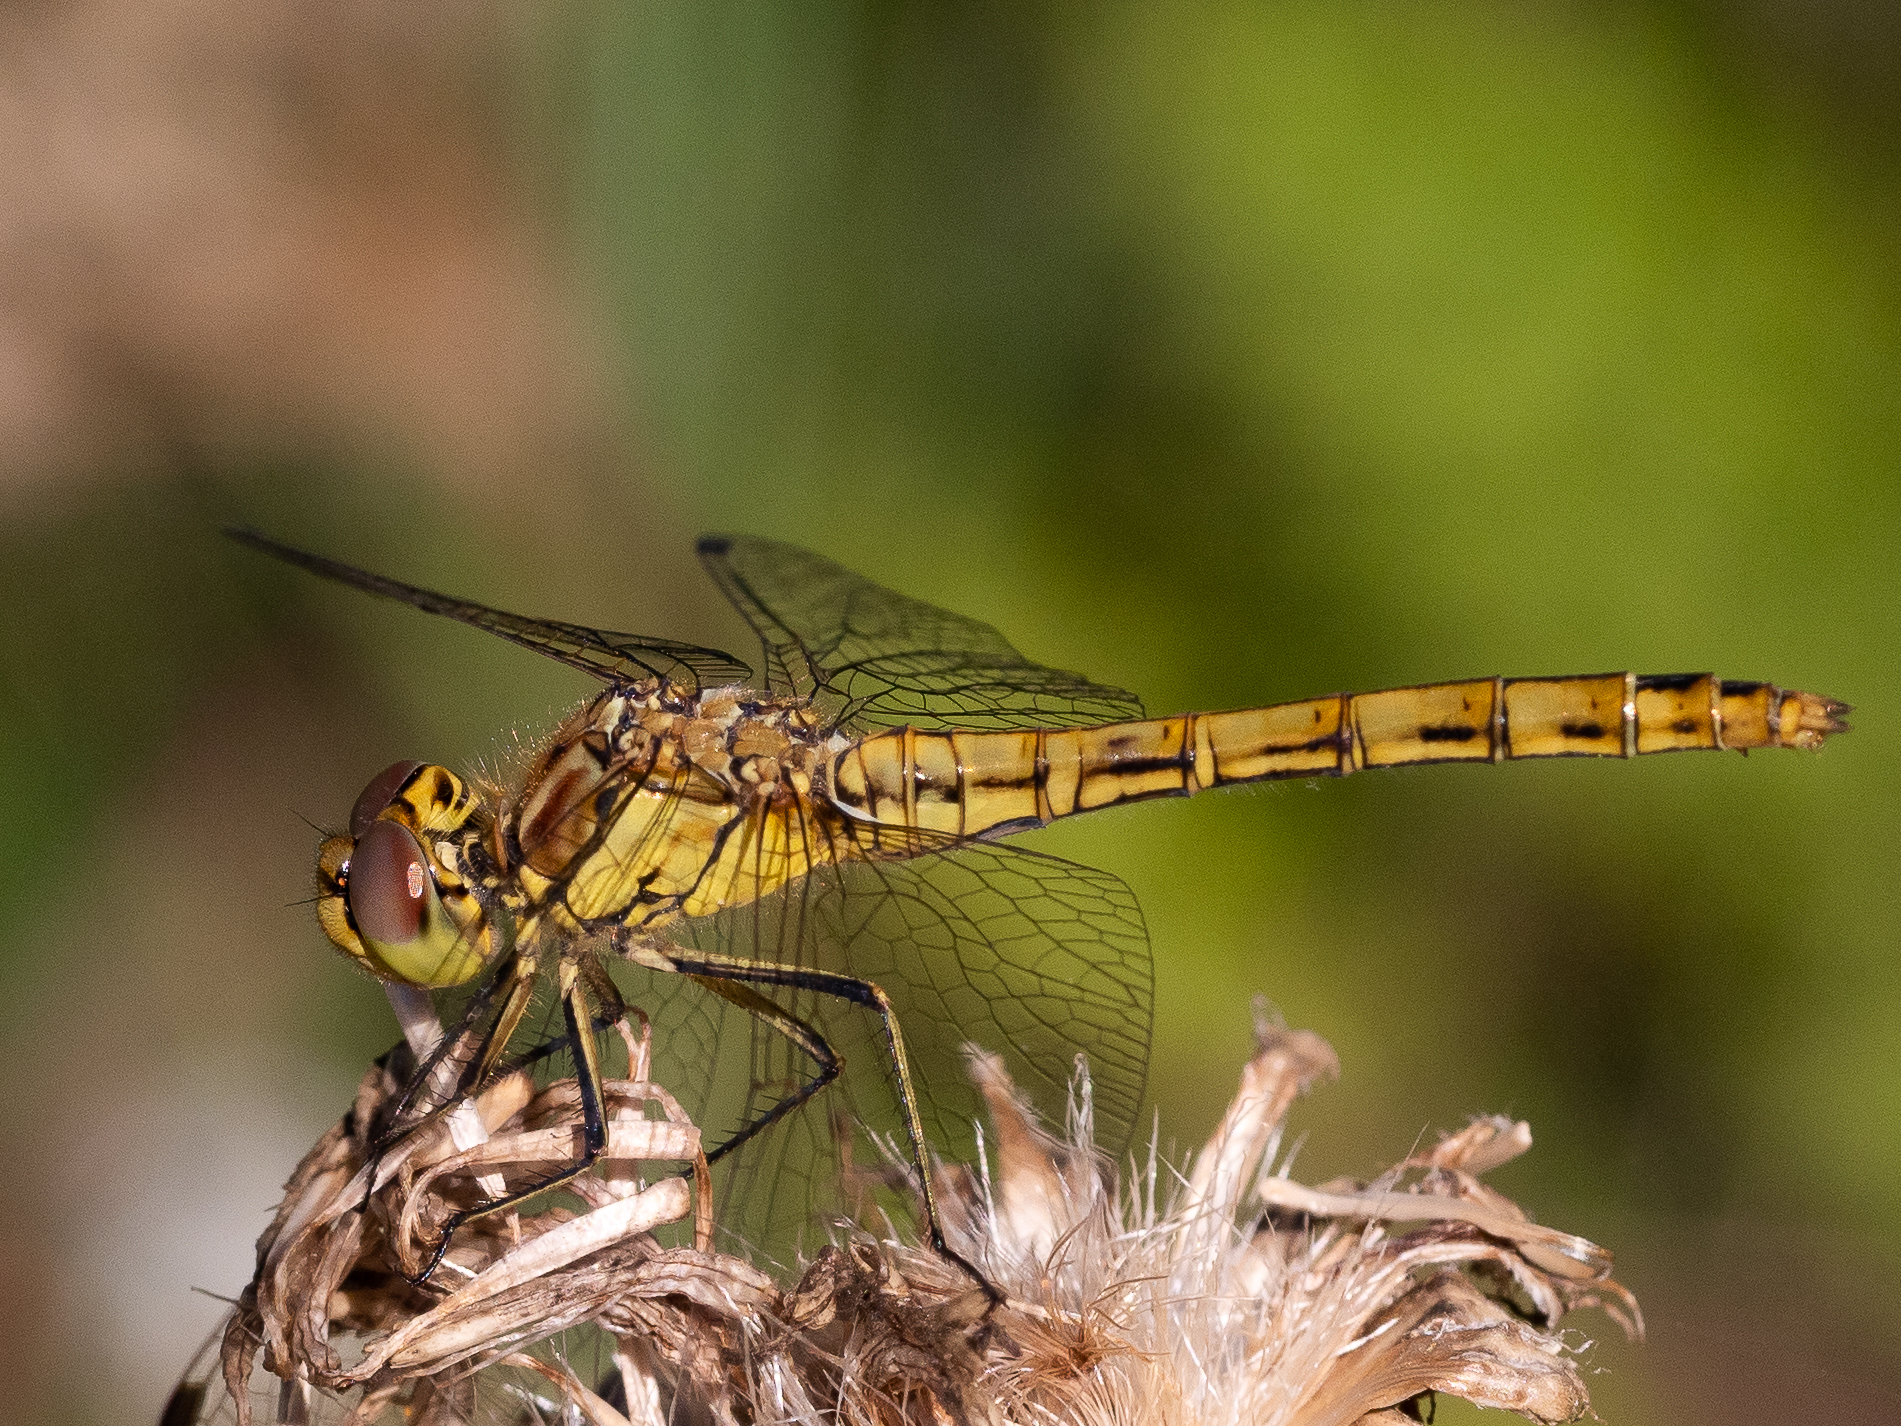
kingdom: Animalia
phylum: Arthropoda
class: Insecta
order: Odonata
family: Libellulidae
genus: Sympetrum
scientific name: Sympetrum vulgatum
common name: Vagrant darter
